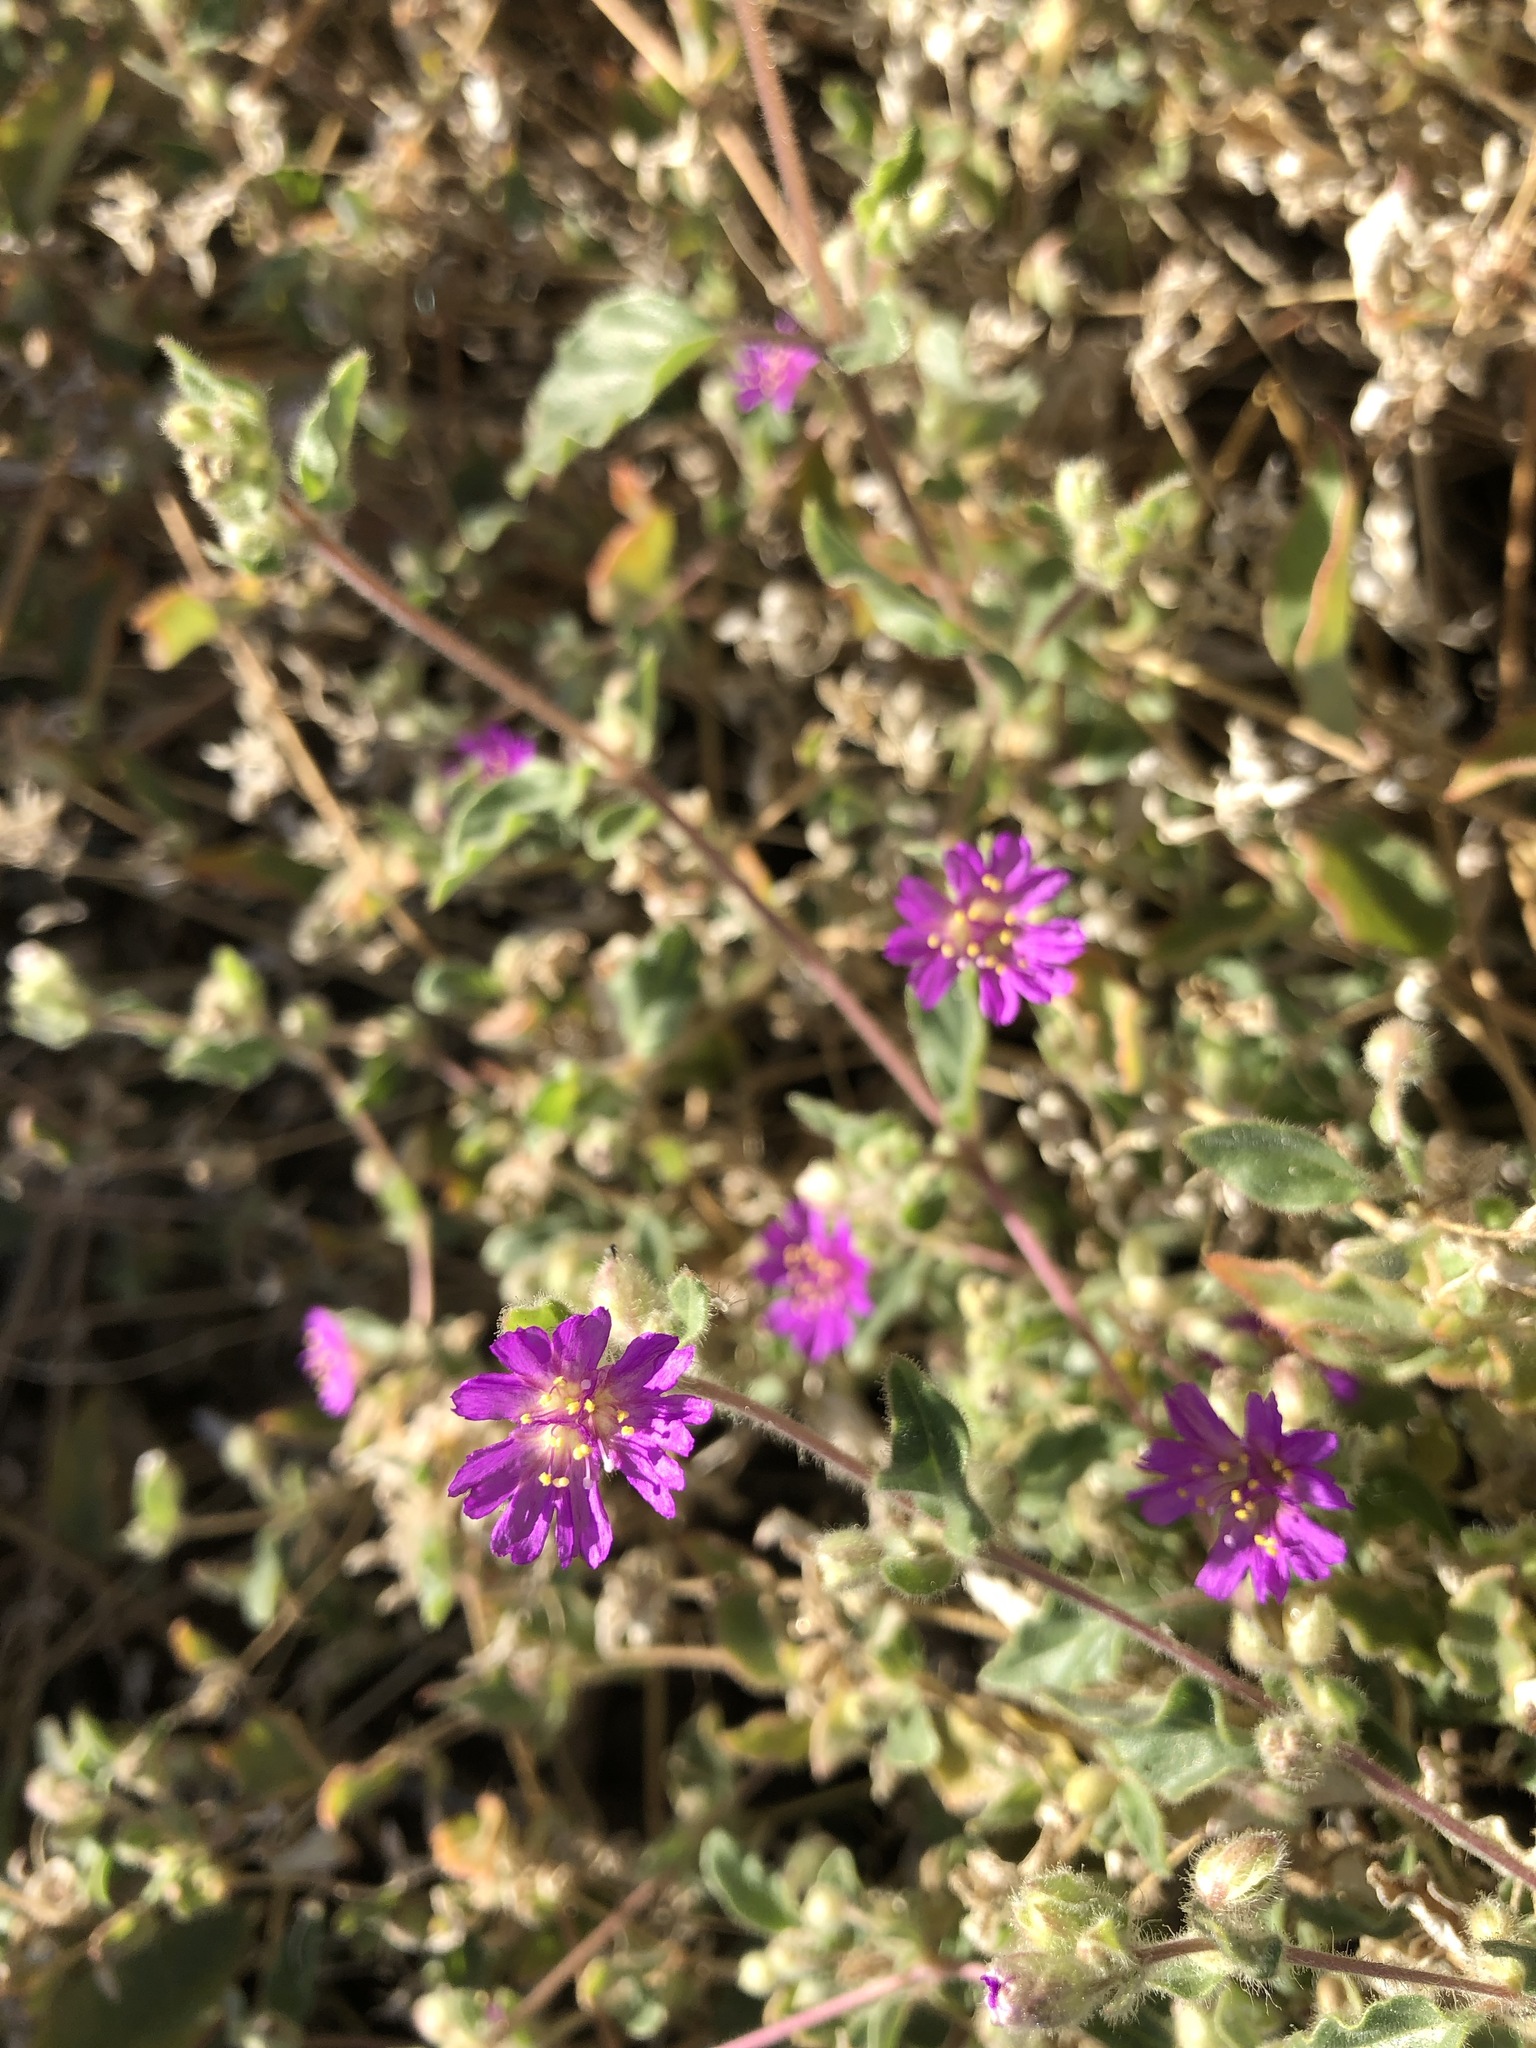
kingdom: Plantae
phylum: Tracheophyta
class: Magnoliopsida
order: Caryophyllales
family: Nyctaginaceae
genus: Allionia
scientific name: Allionia incarnata
